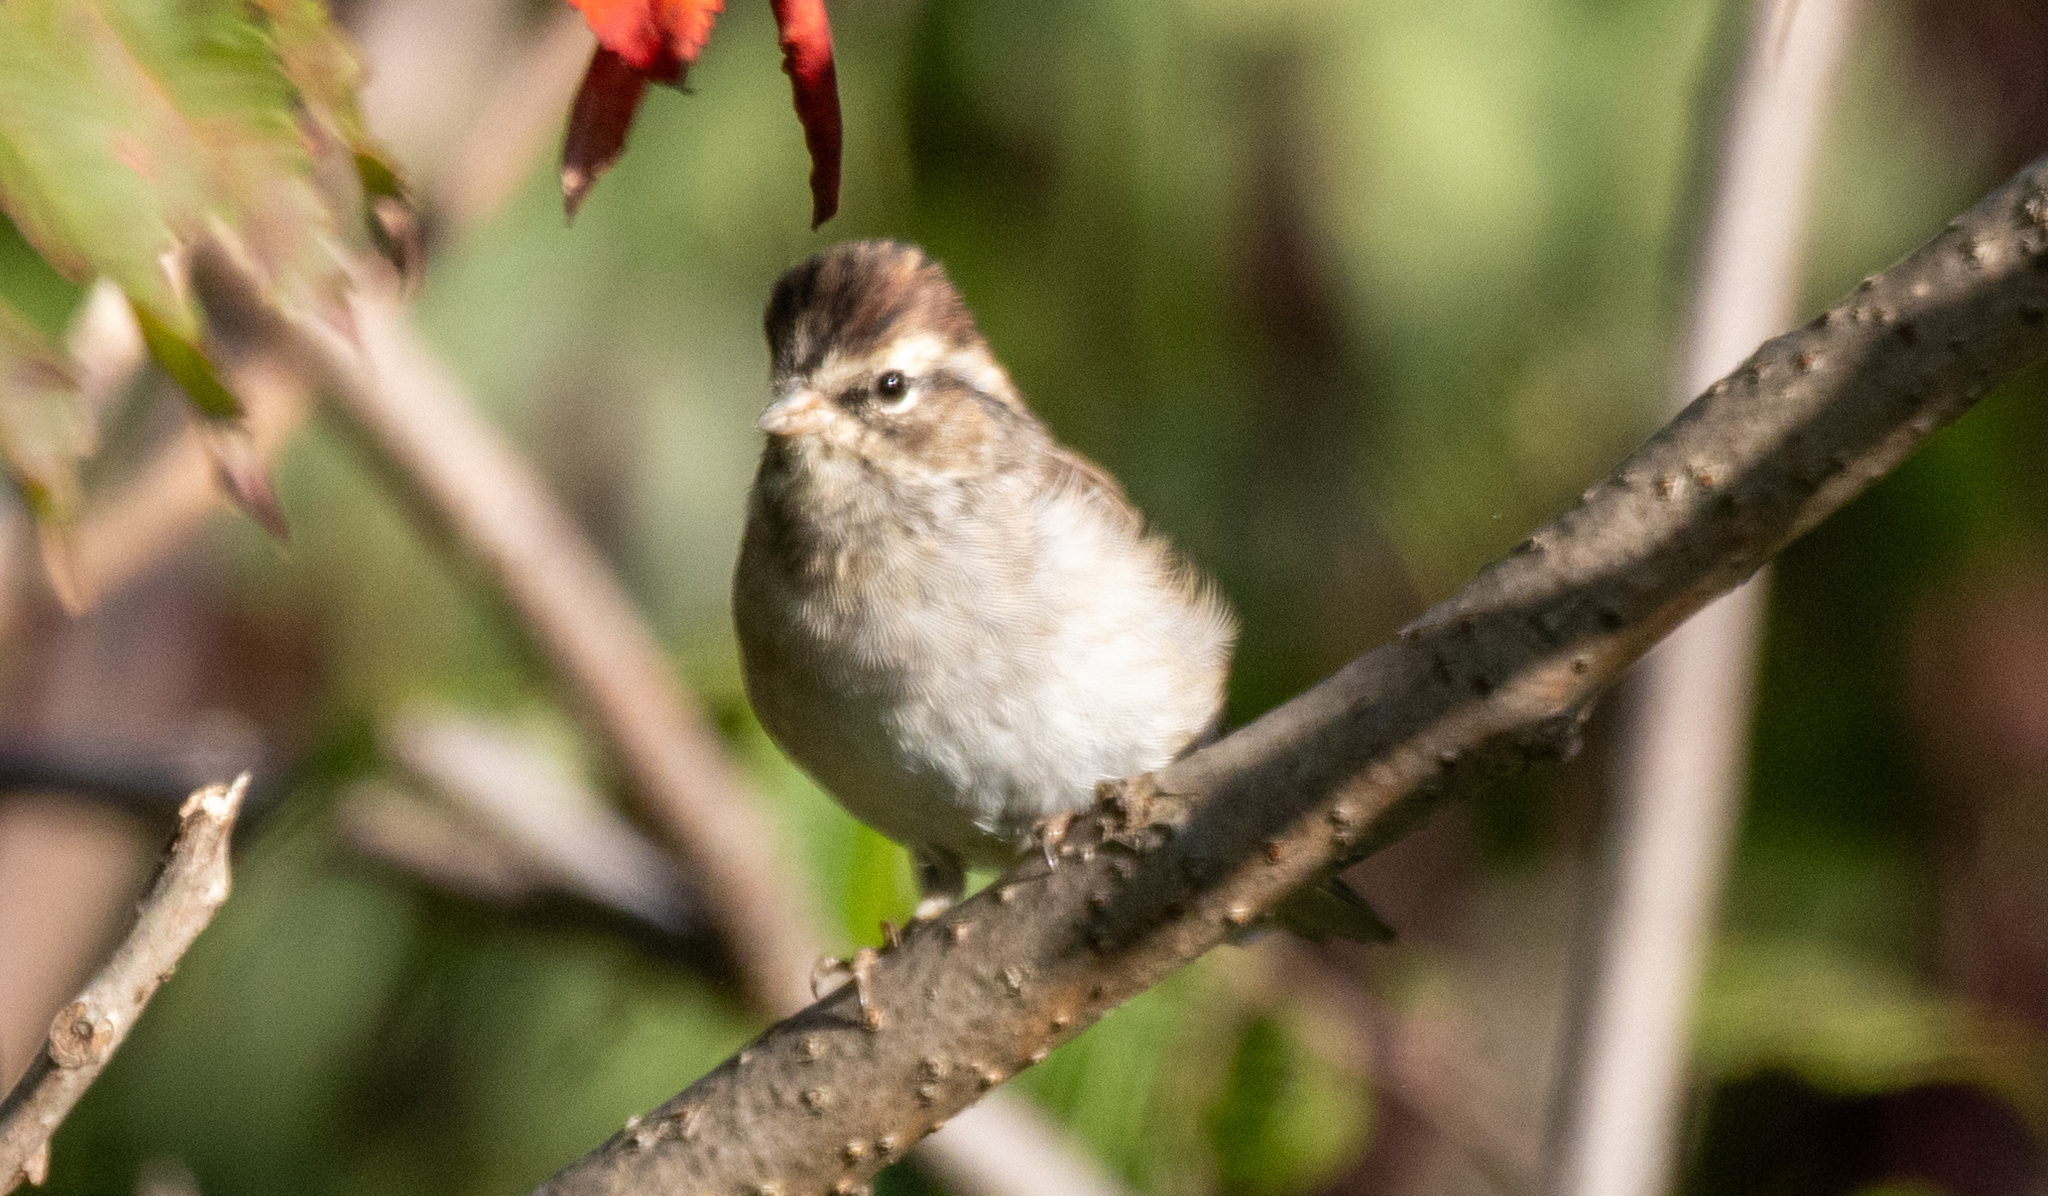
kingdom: Animalia
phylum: Chordata
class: Aves
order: Passeriformes
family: Passerellidae
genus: Spizella
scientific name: Spizella pallida
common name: Clay-colored sparrow
